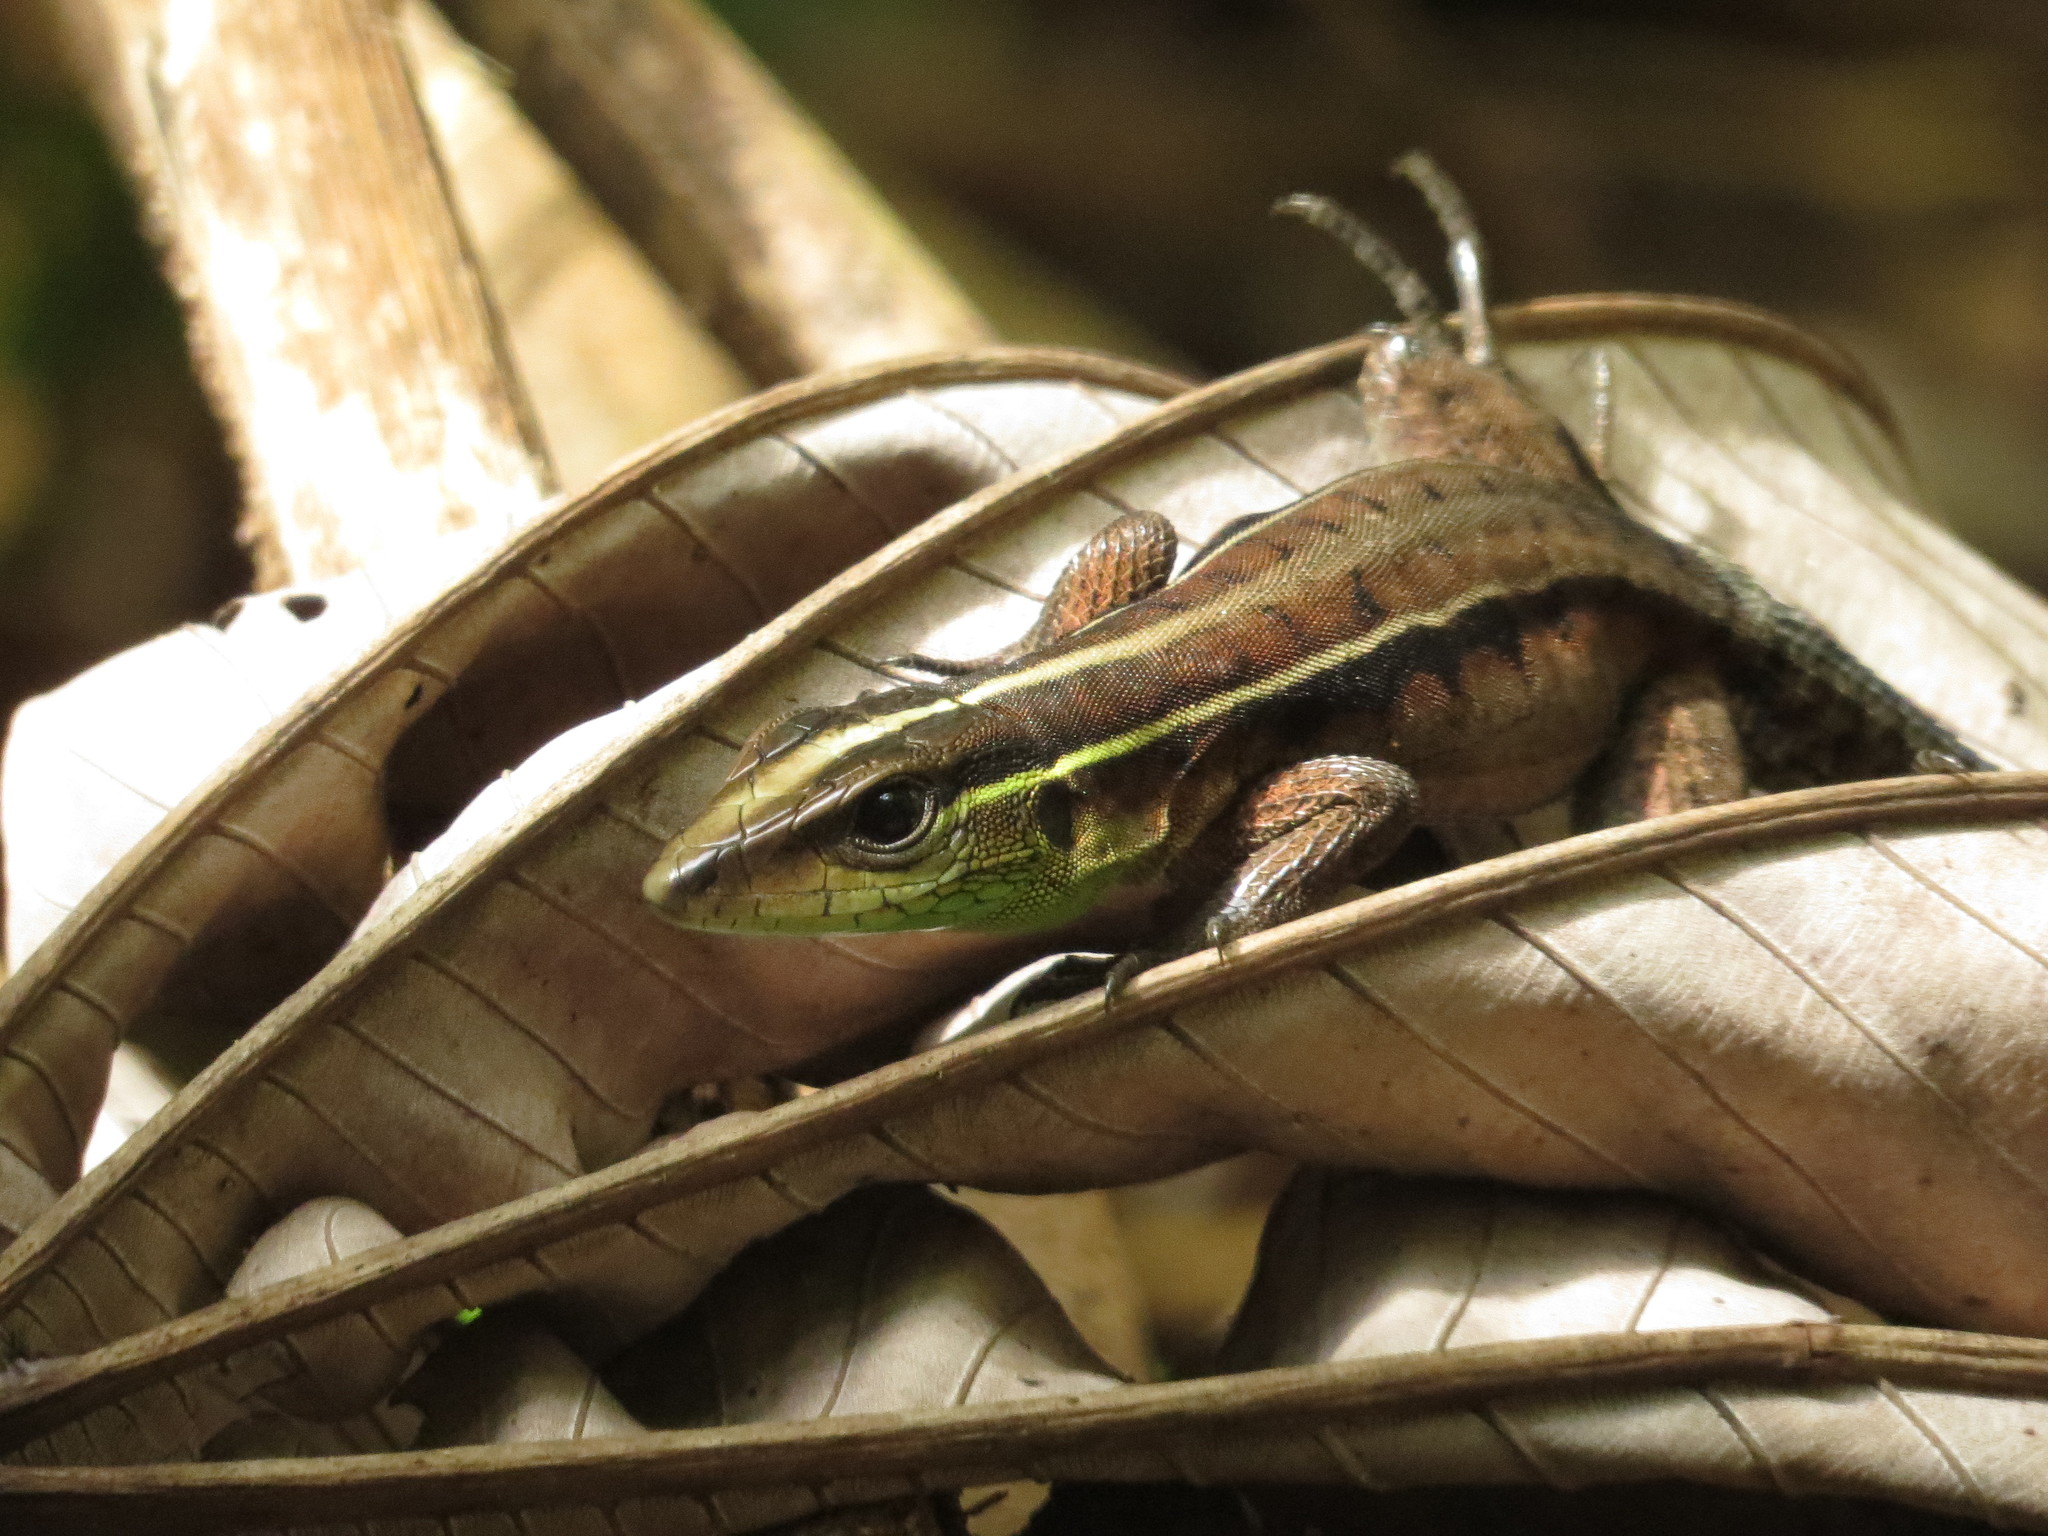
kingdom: Animalia
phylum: Chordata
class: Squamata
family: Teiidae
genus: Kentropyx
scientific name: Kentropyx calcarata
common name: Striped forest whiptail
